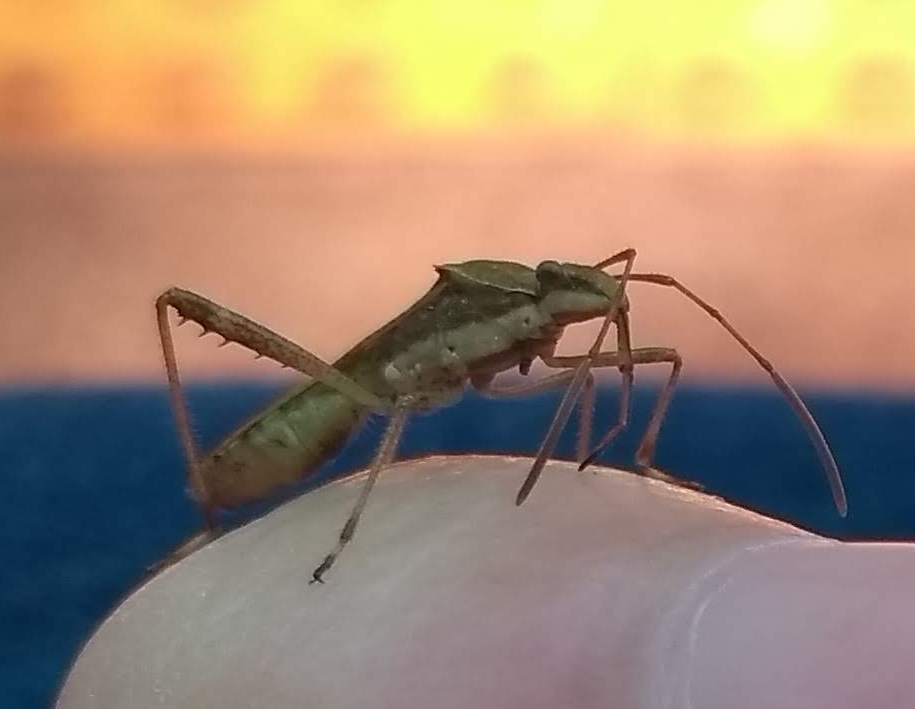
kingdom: Animalia
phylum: Arthropoda
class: Insecta
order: Hemiptera
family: Alydidae
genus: Neomegalotomus
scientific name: Neomegalotomus parvus
